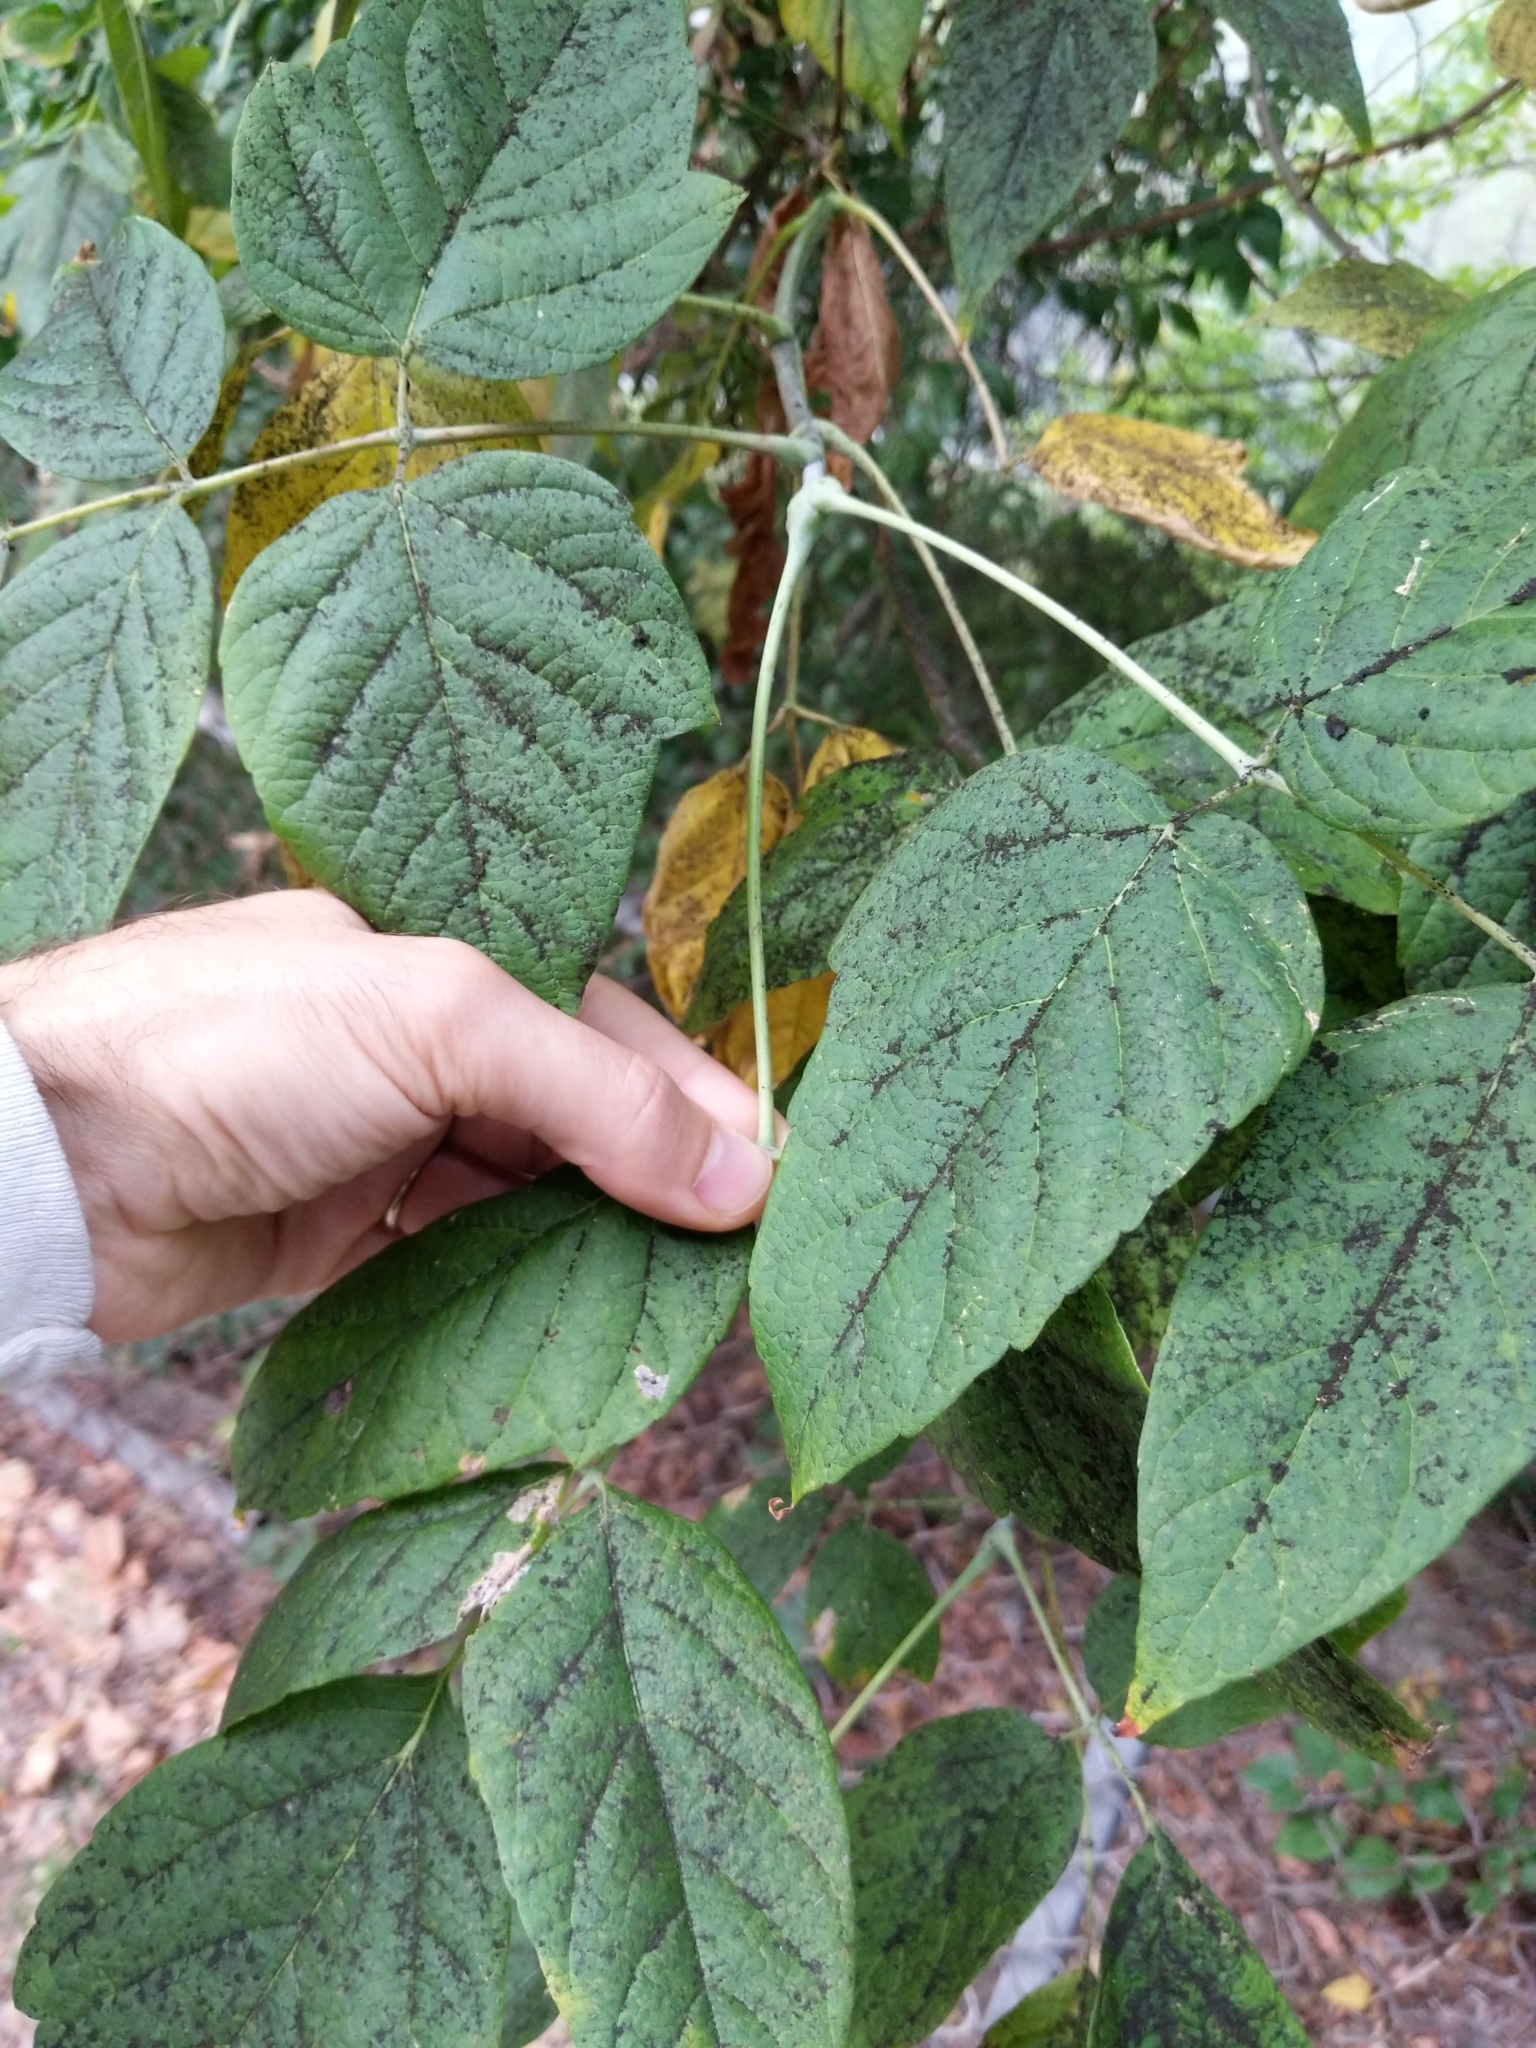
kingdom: Plantae
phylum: Tracheophyta
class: Magnoliopsida
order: Sapindales
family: Sapindaceae
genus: Acer
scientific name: Acer negundo
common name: Ashleaf maple
